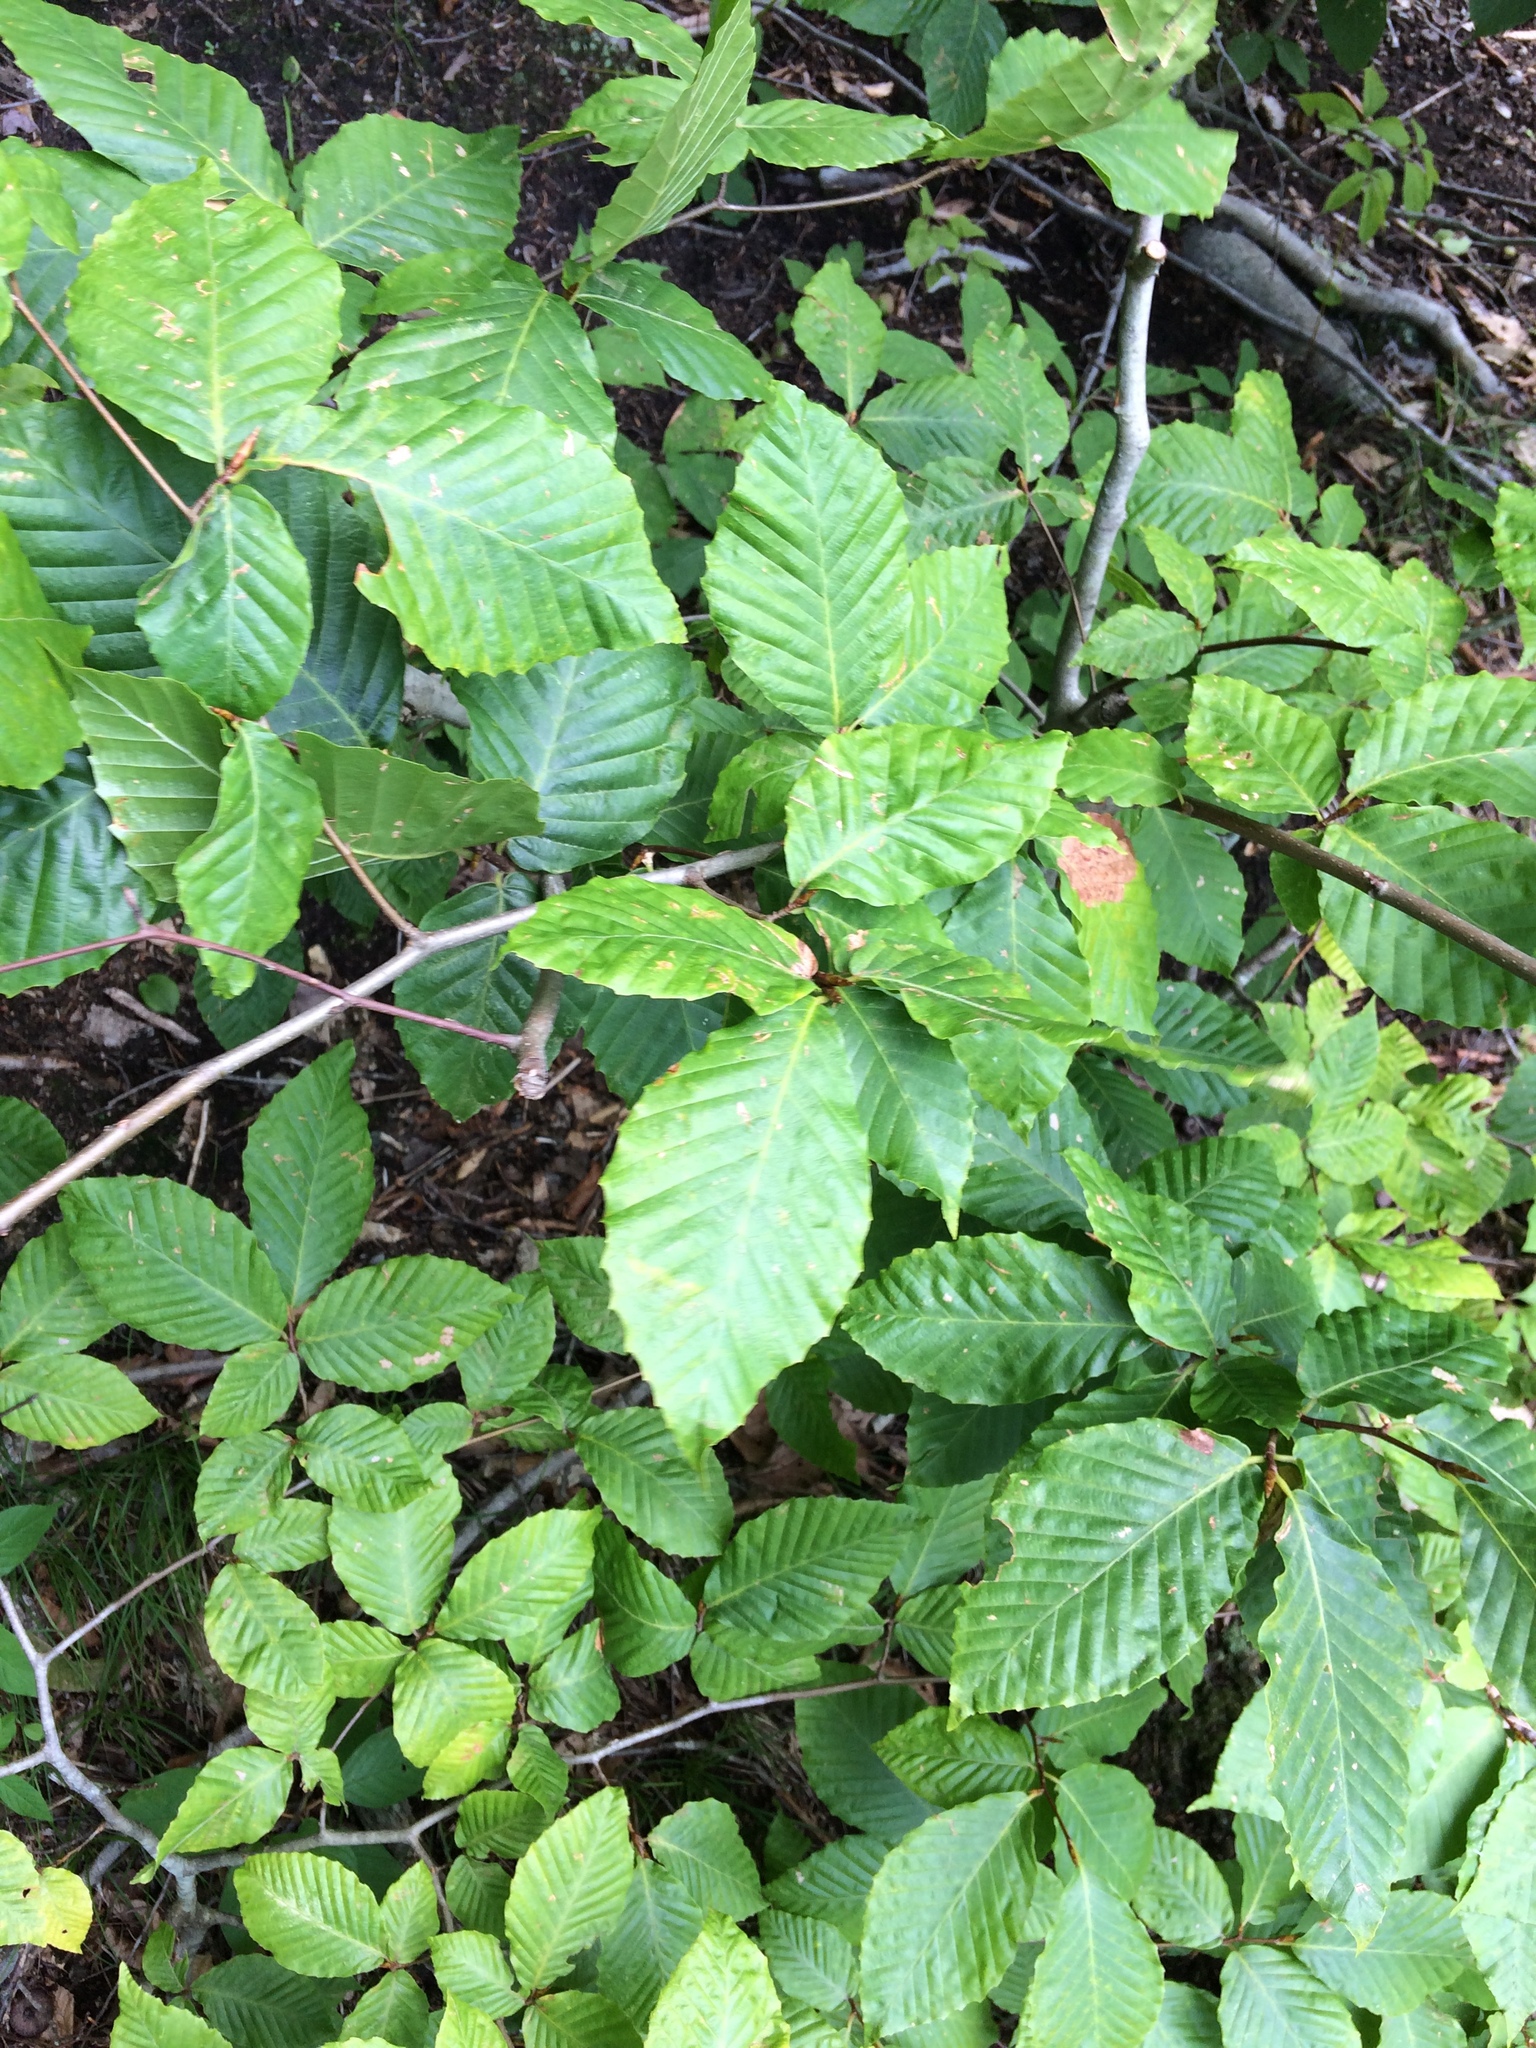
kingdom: Plantae
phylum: Tracheophyta
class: Magnoliopsida
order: Fagales
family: Fagaceae
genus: Fagus
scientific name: Fagus grandifolia
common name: American beech
